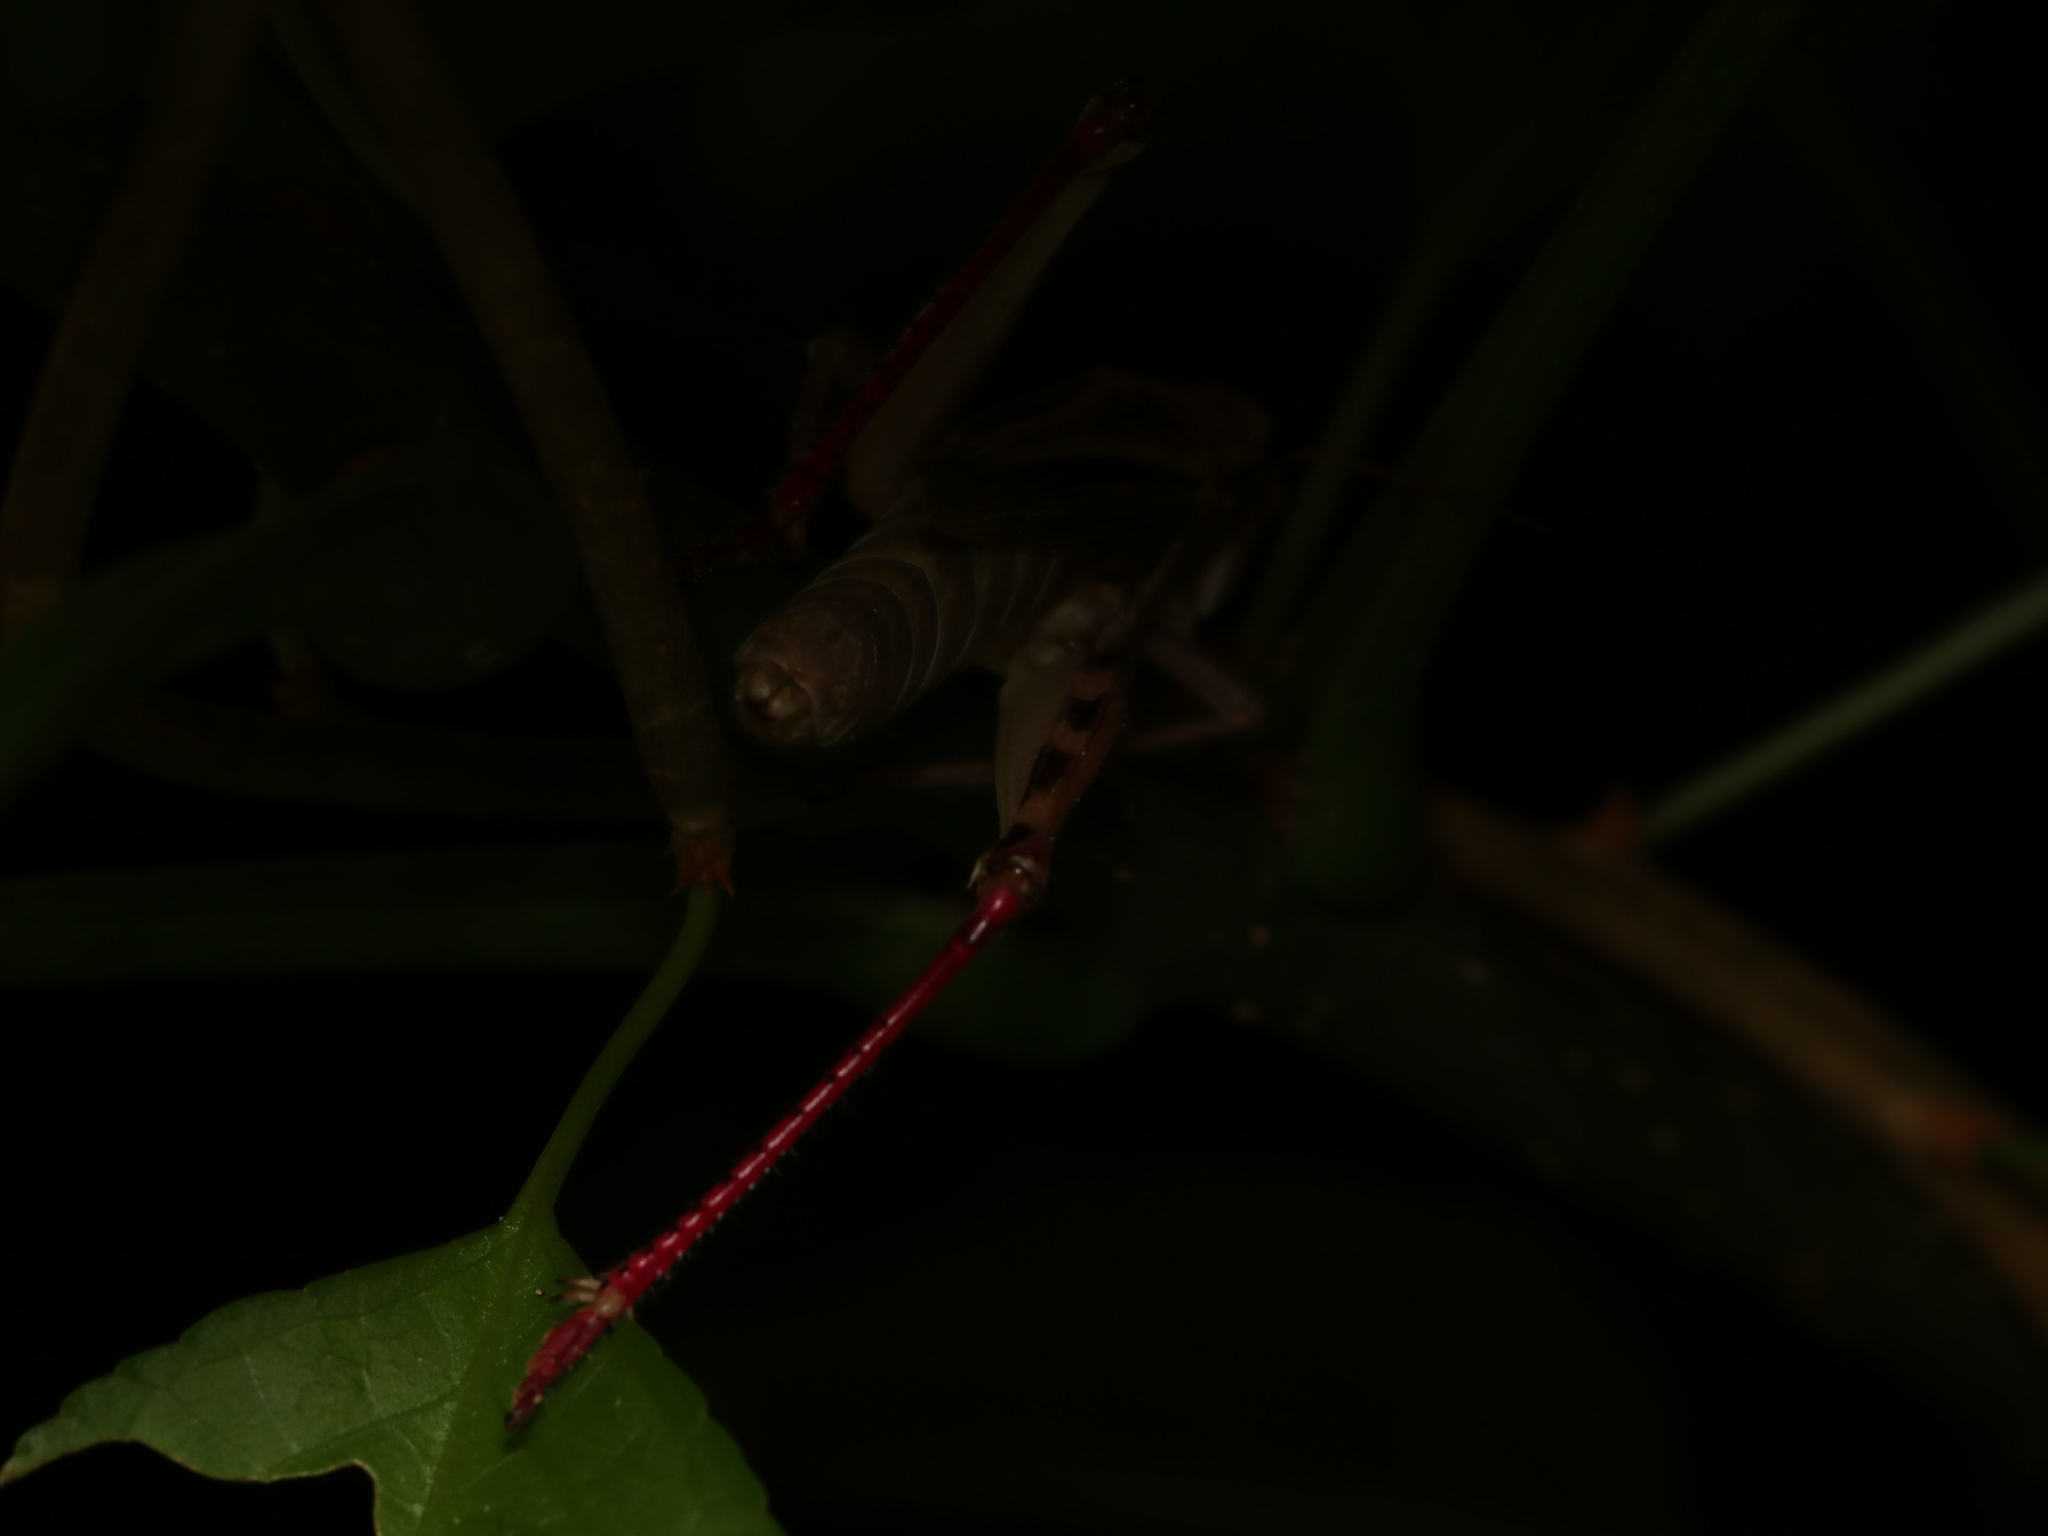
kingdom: Animalia
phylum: Arthropoda
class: Insecta
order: Orthoptera
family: Acrididae
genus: Melanoplus
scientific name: Melanoplus bivittatus
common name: Two-striped grasshopper
